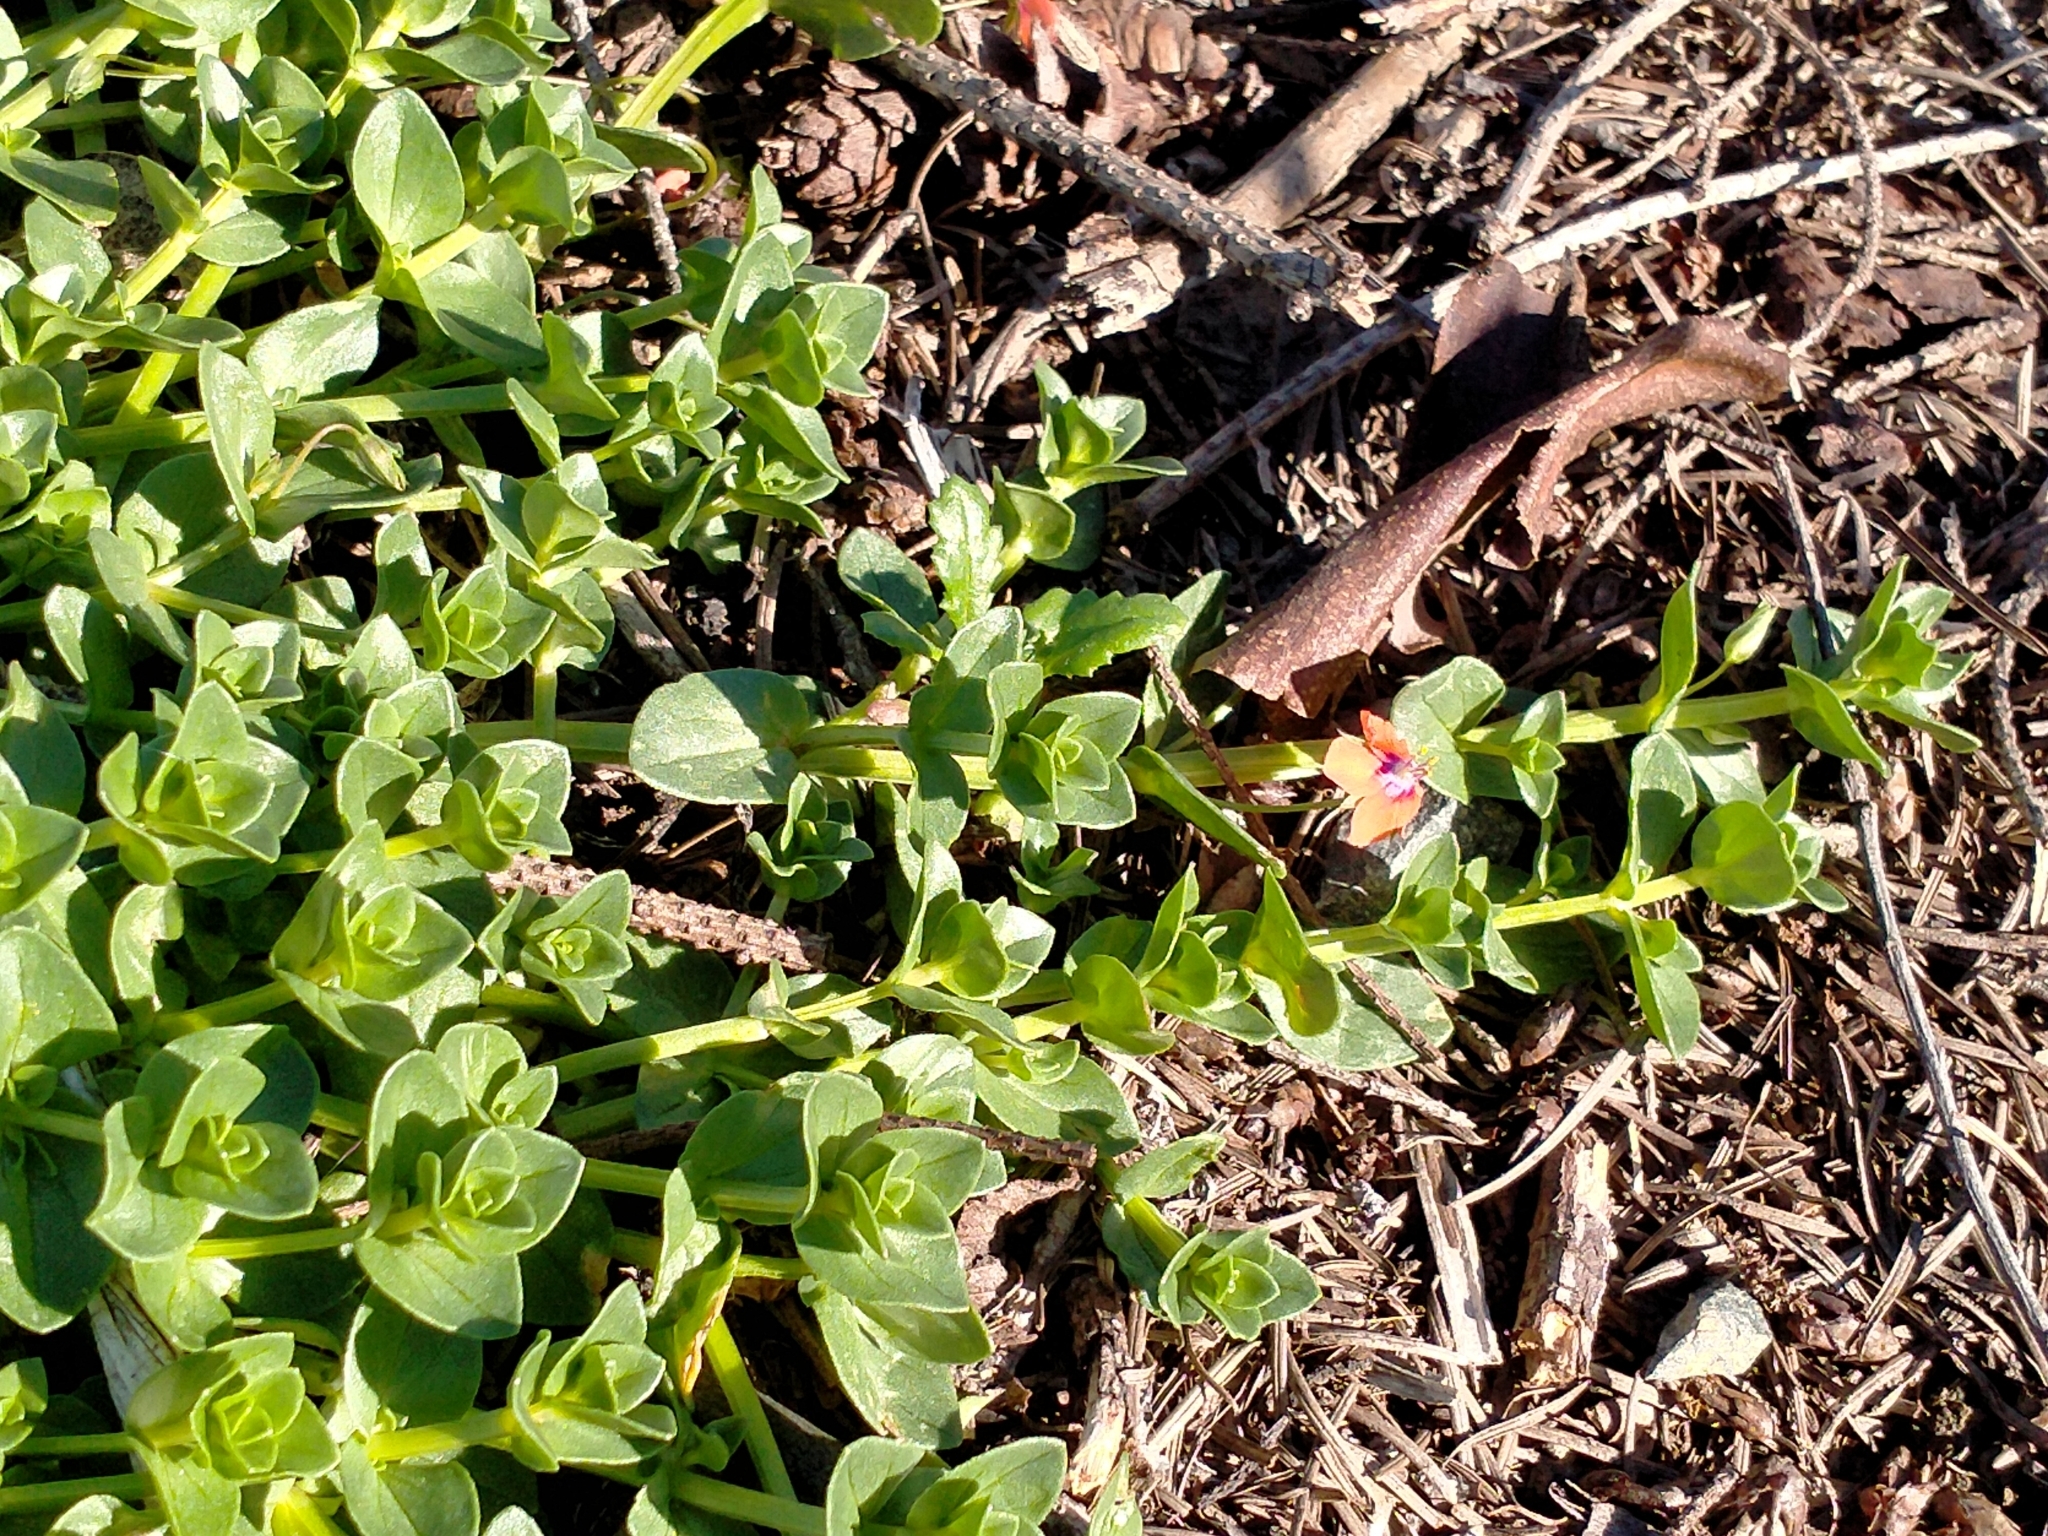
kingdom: Plantae
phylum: Tracheophyta
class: Magnoliopsida
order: Ericales
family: Primulaceae
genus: Lysimachia
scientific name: Lysimachia arvensis
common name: Scarlet pimpernel
